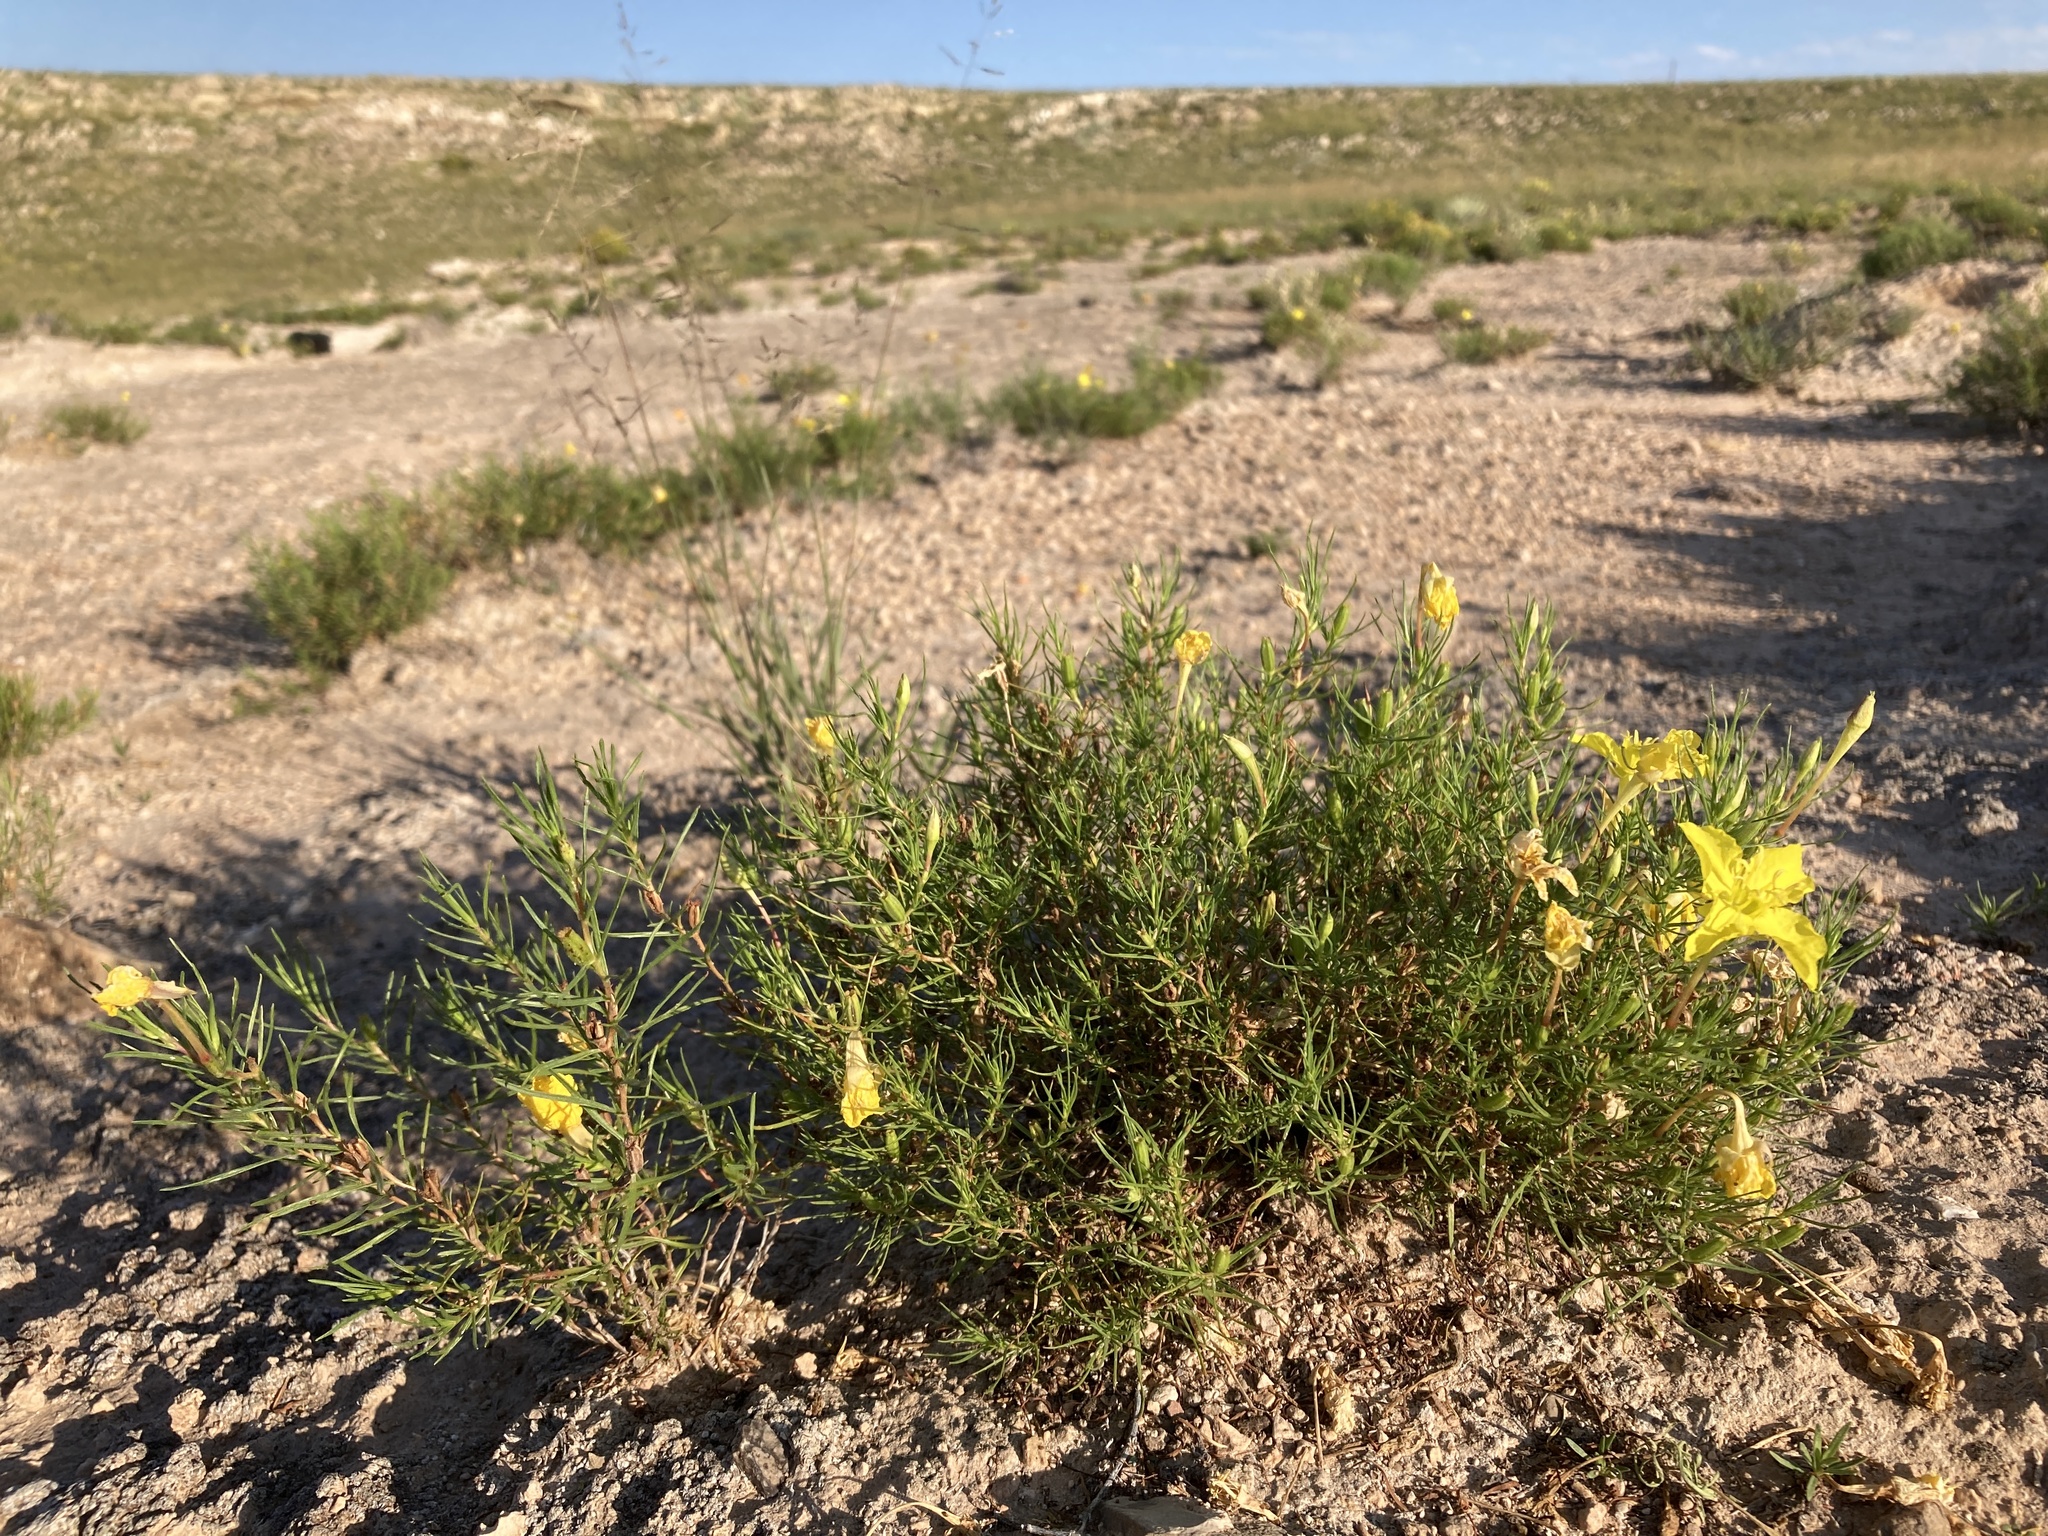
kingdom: Plantae
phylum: Tracheophyta
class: Magnoliopsida
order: Myrtales
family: Onagraceae
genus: Oenothera
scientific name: Oenothera hartwegii
